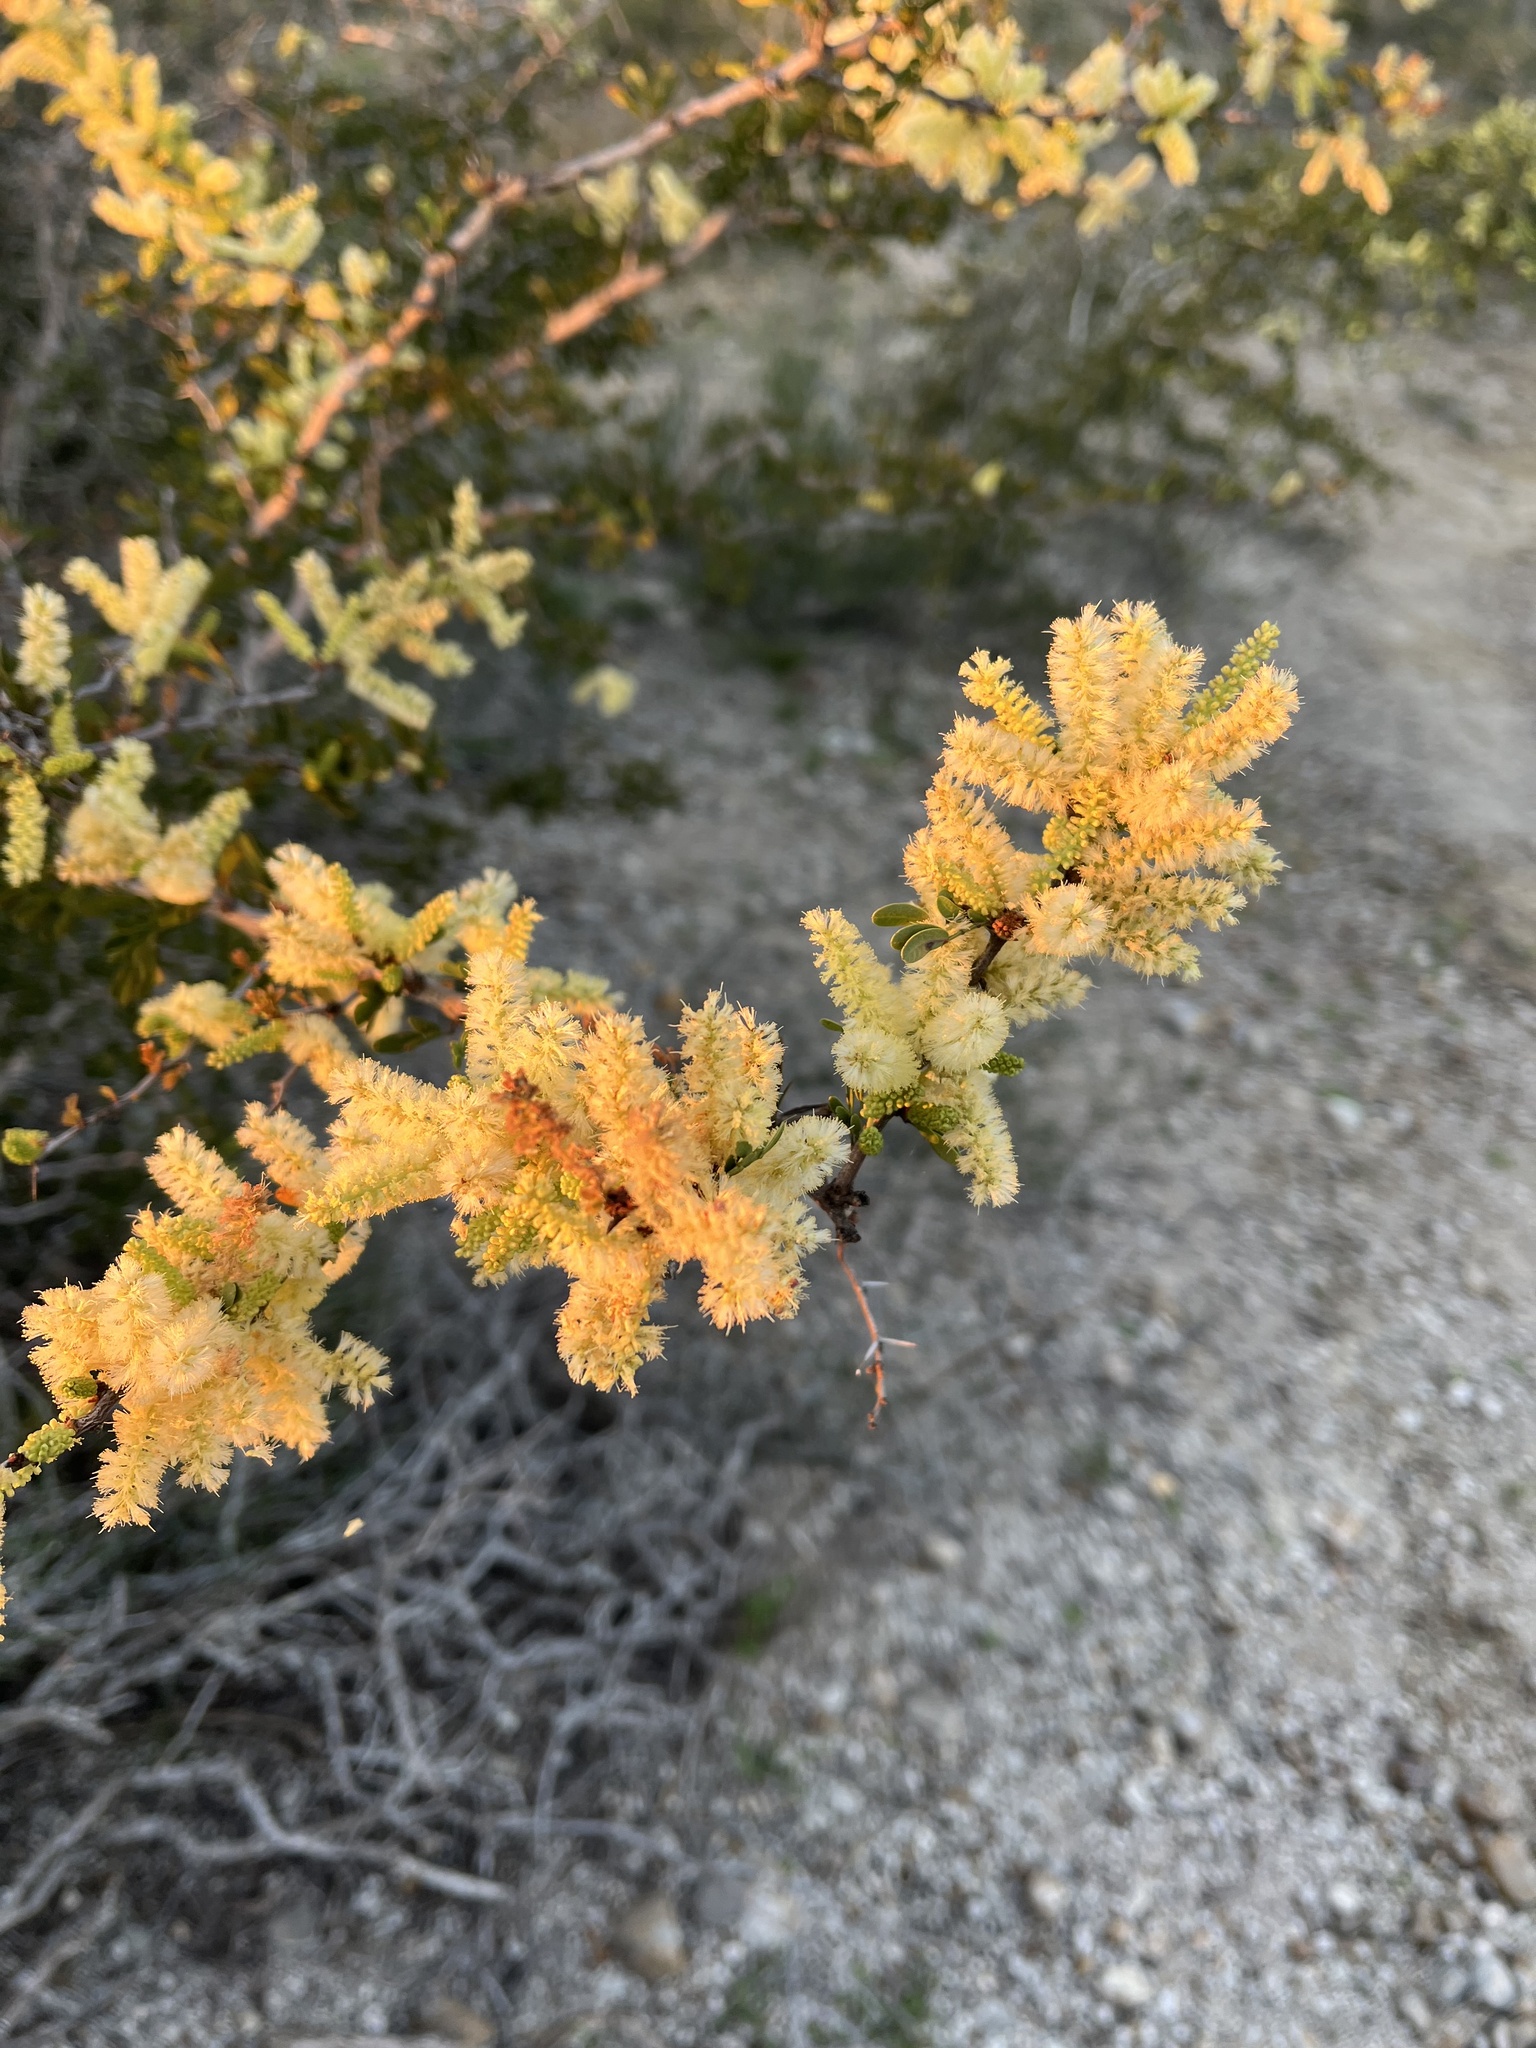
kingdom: Plantae
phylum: Tracheophyta
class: Magnoliopsida
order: Fabales
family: Fabaceae
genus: Vachellia
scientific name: Vachellia rigidula
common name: Blackbrush
